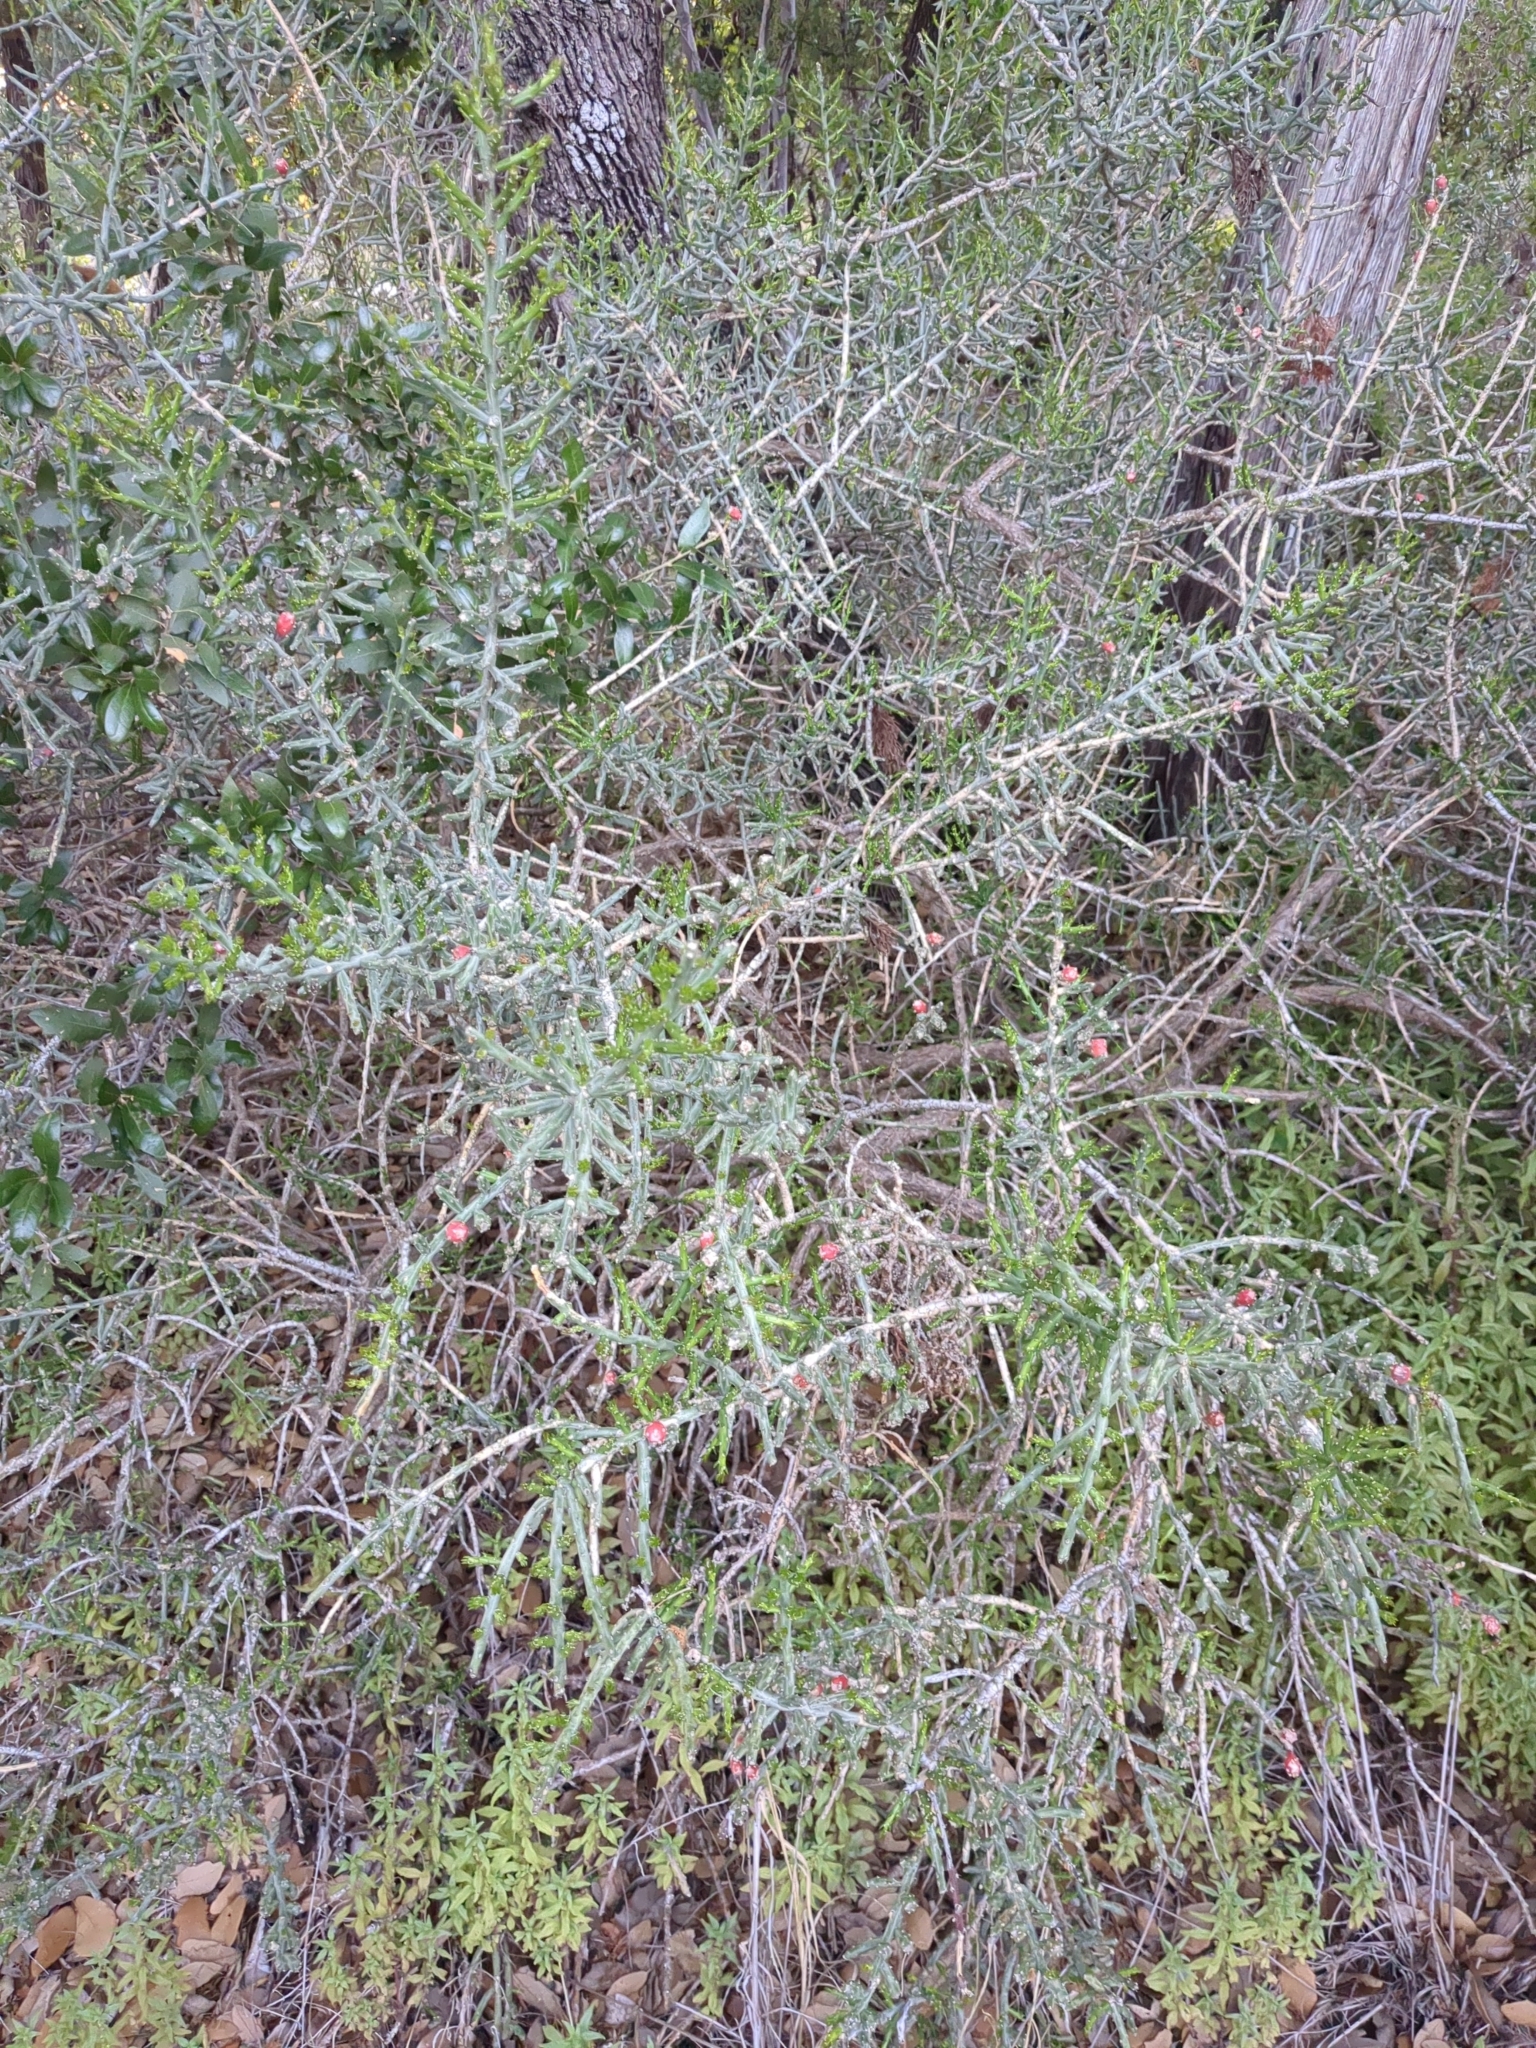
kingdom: Plantae
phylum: Tracheophyta
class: Magnoliopsida
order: Caryophyllales
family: Cactaceae
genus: Cylindropuntia
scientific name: Cylindropuntia leptocaulis
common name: Christmas cactus
